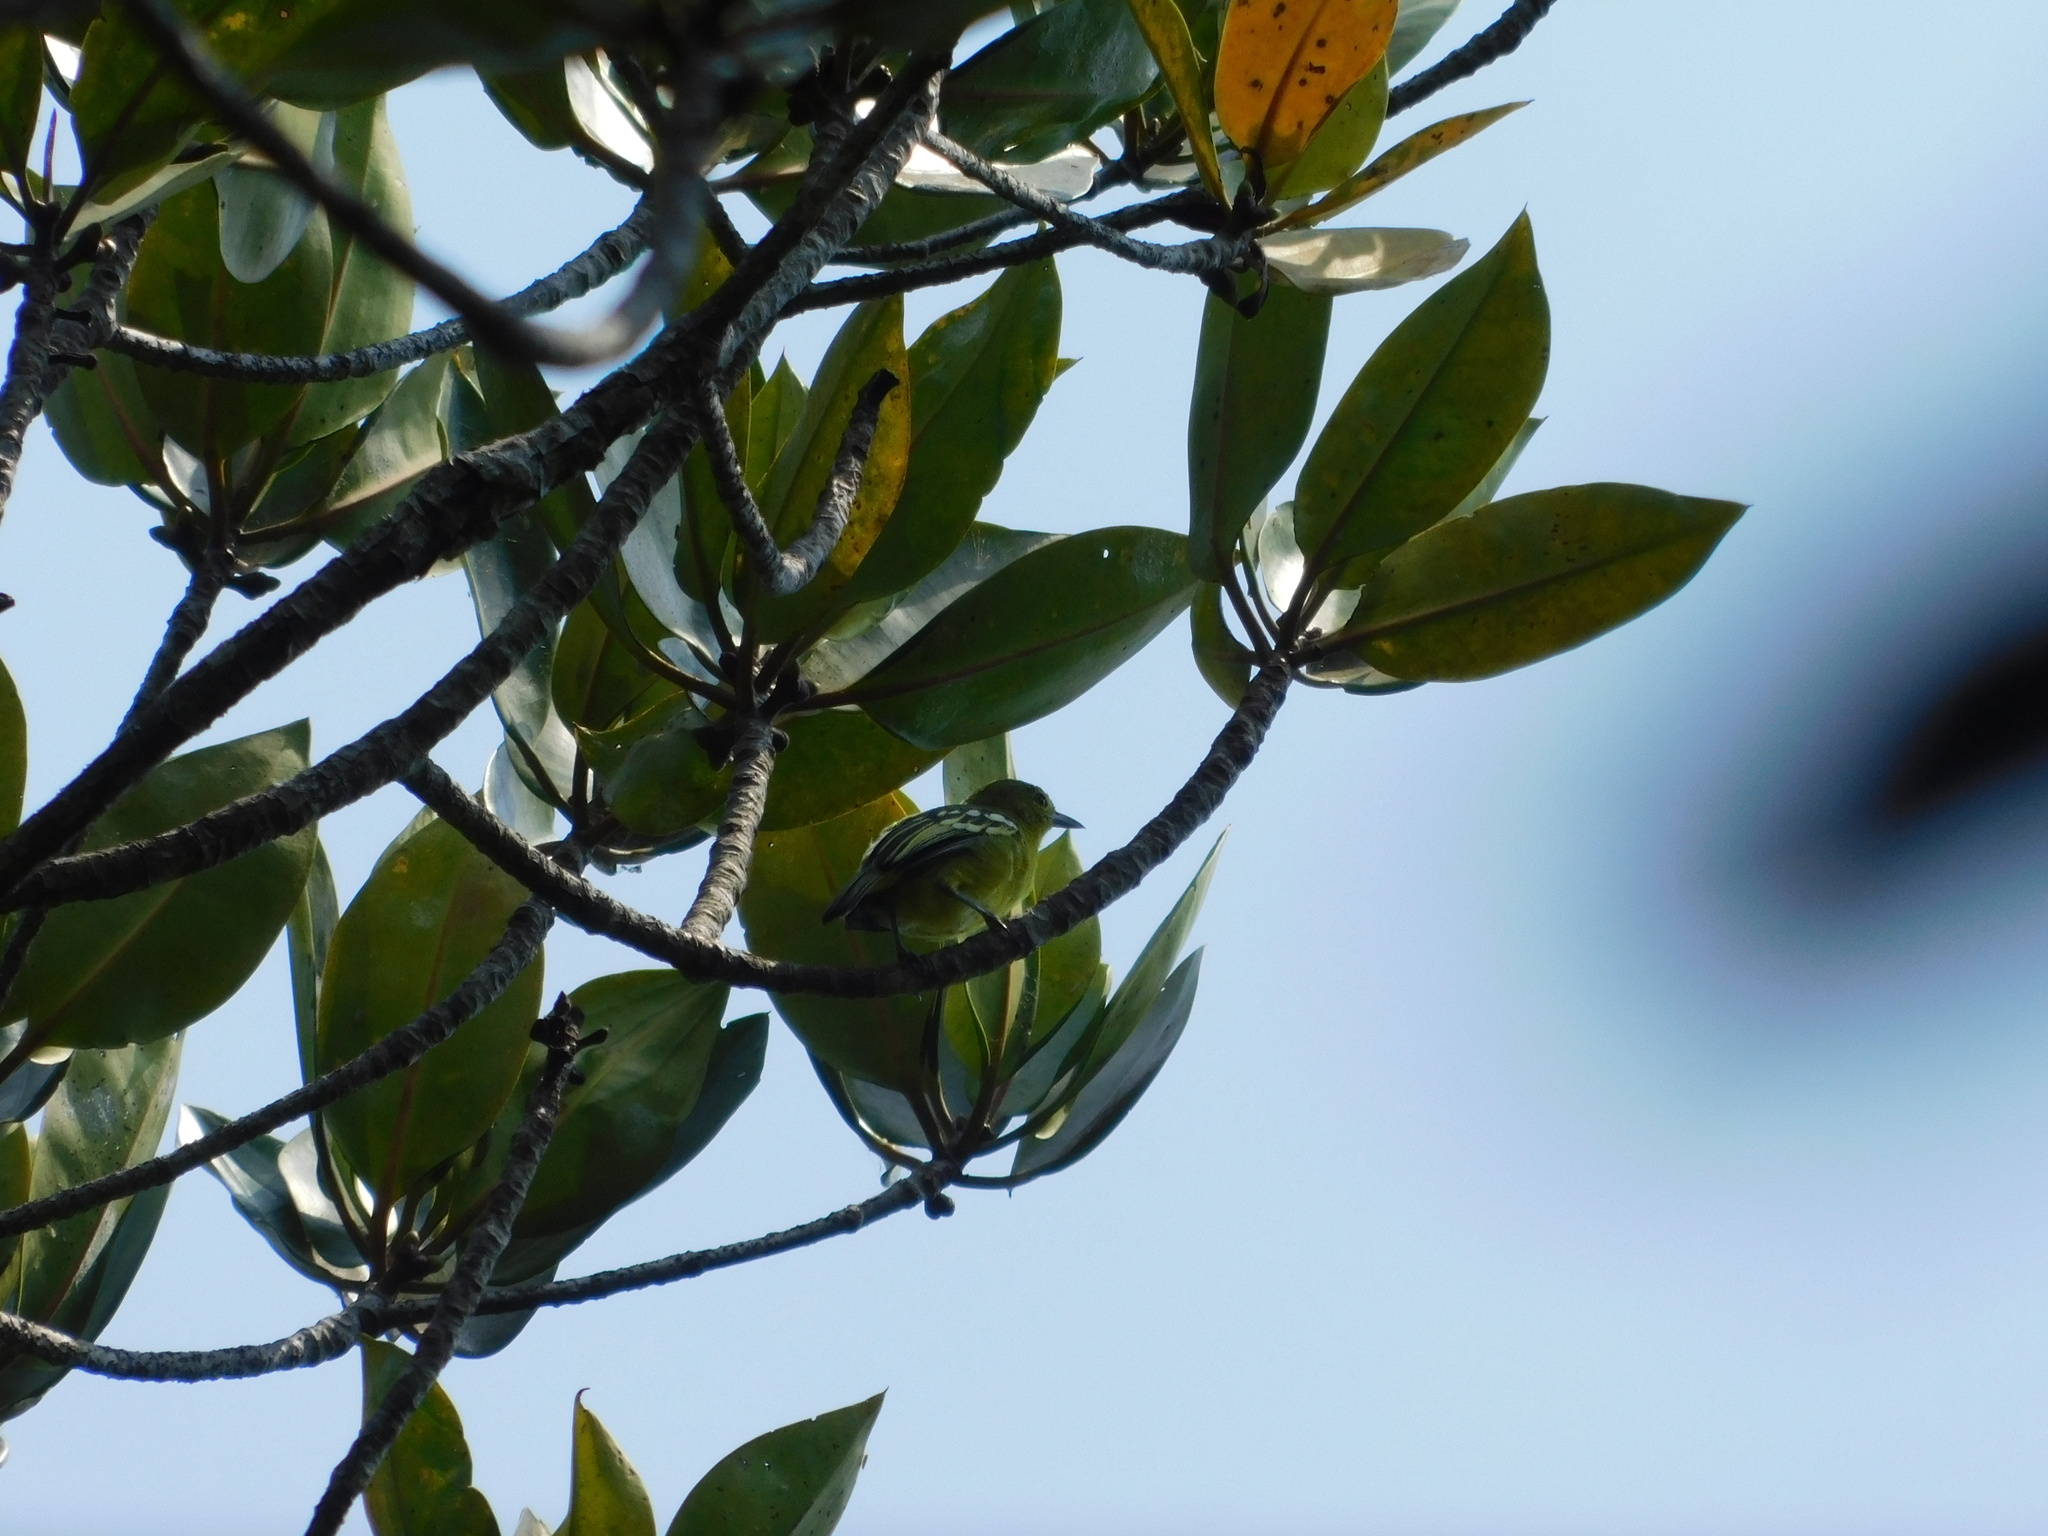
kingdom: Animalia
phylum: Chordata
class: Aves
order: Passeriformes
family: Aegithinidae
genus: Aegithina
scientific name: Aegithina tiphia
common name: Common iora
